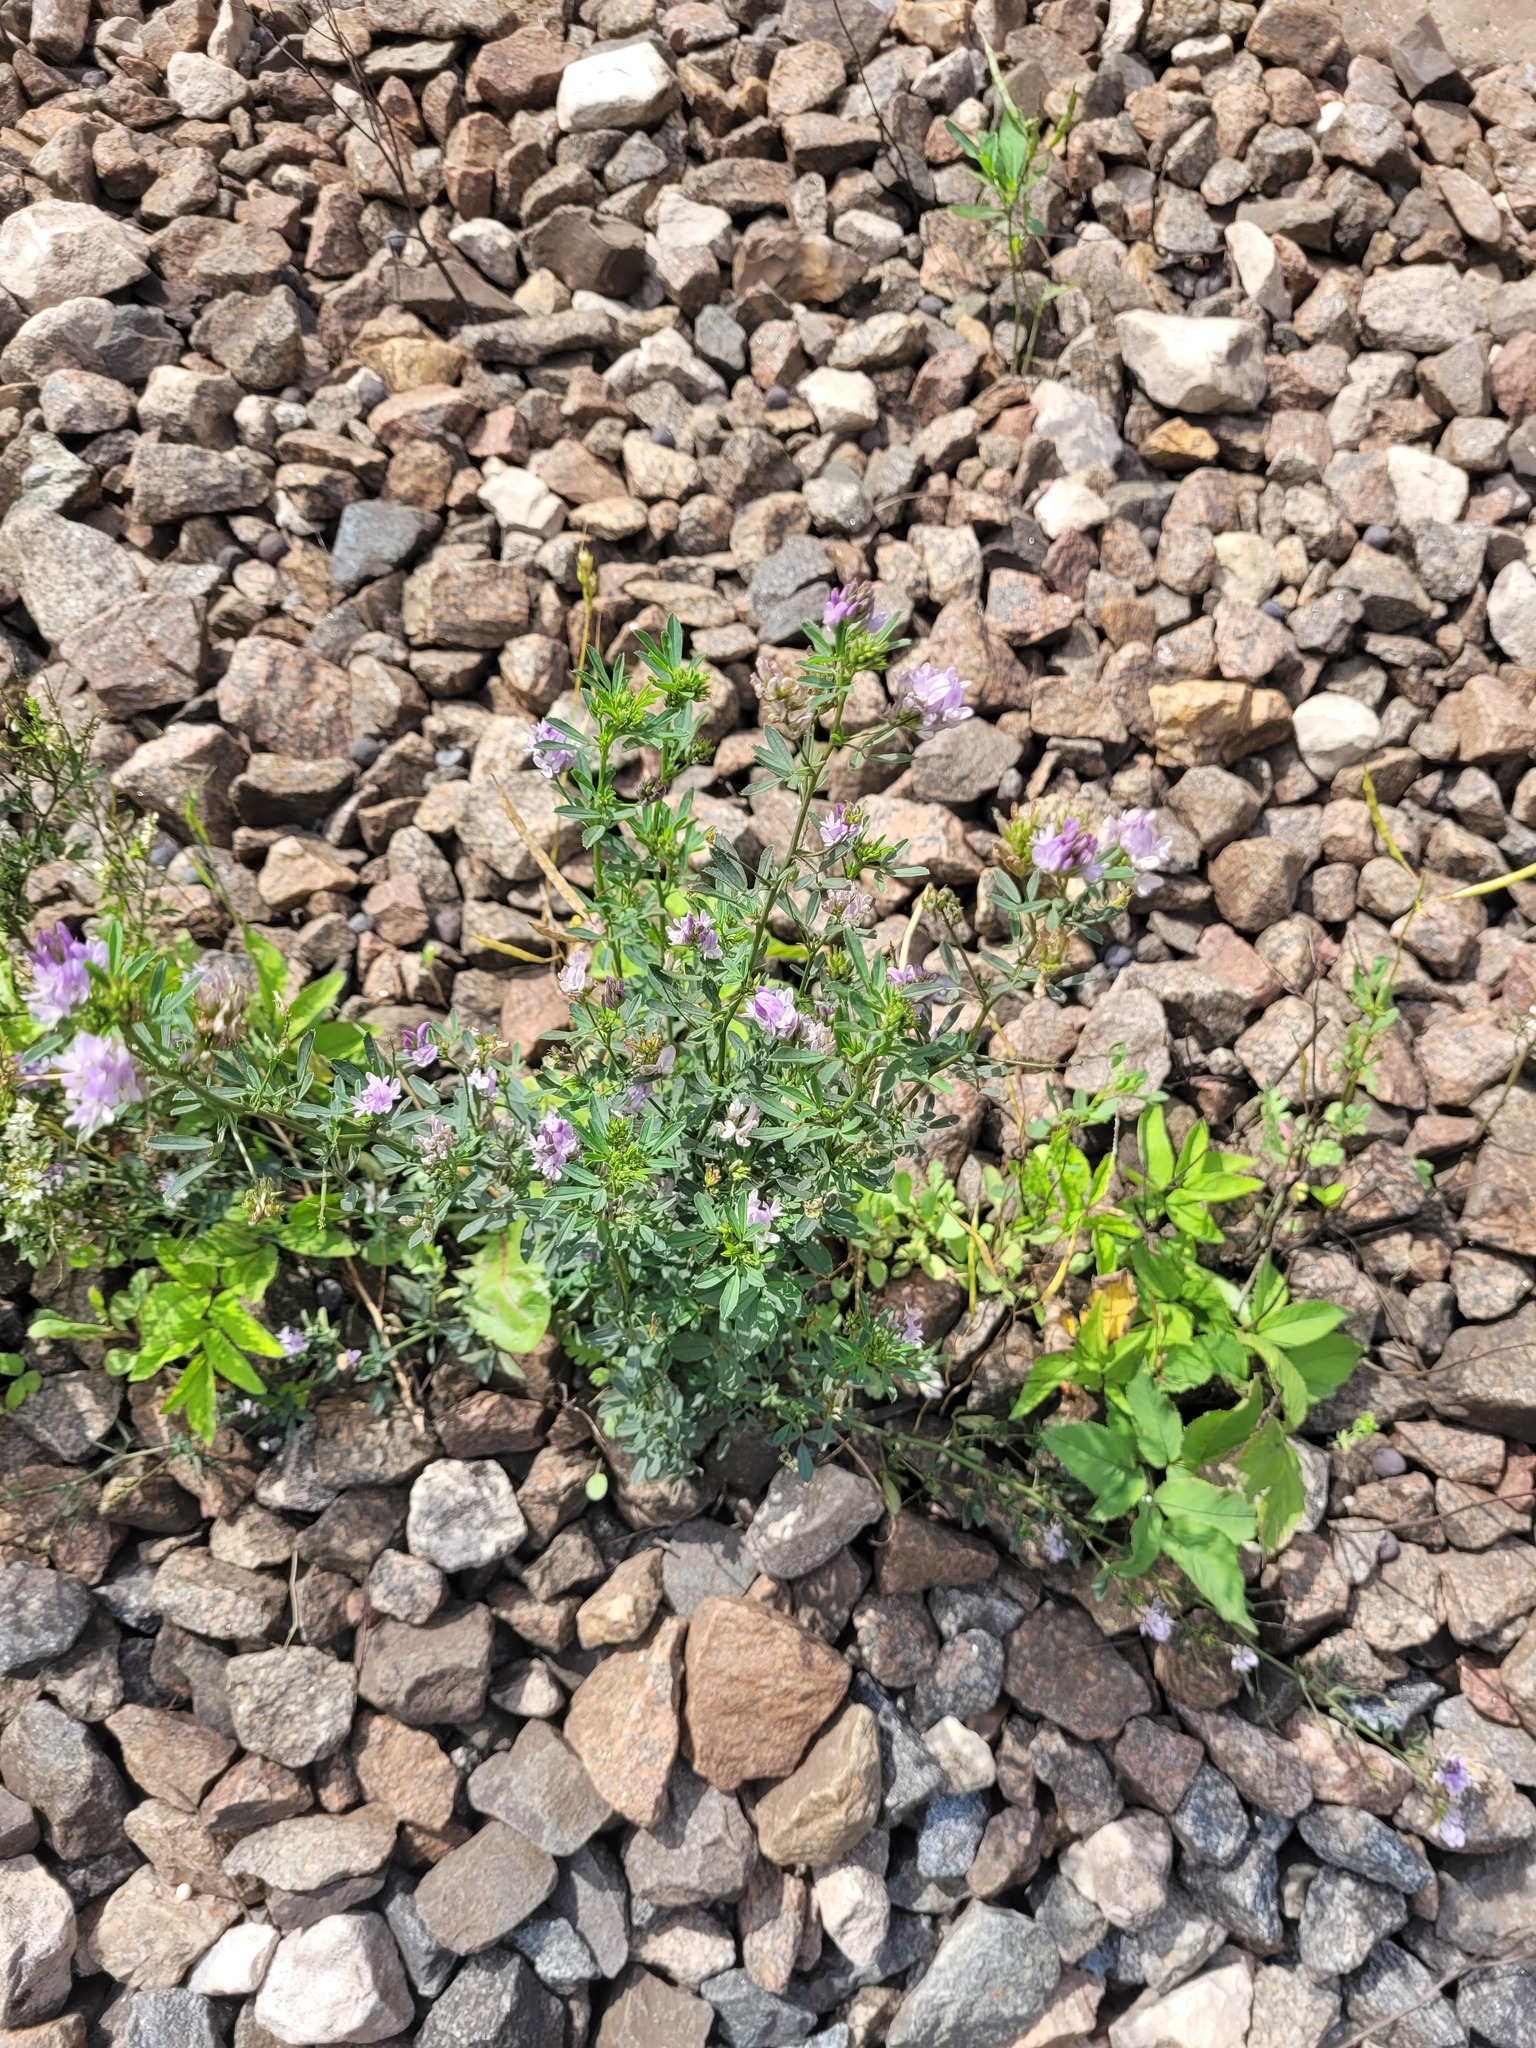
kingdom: Plantae
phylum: Tracheophyta
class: Magnoliopsida
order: Fabales
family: Fabaceae
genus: Medicago
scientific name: Medicago varia
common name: Sand lucerne
